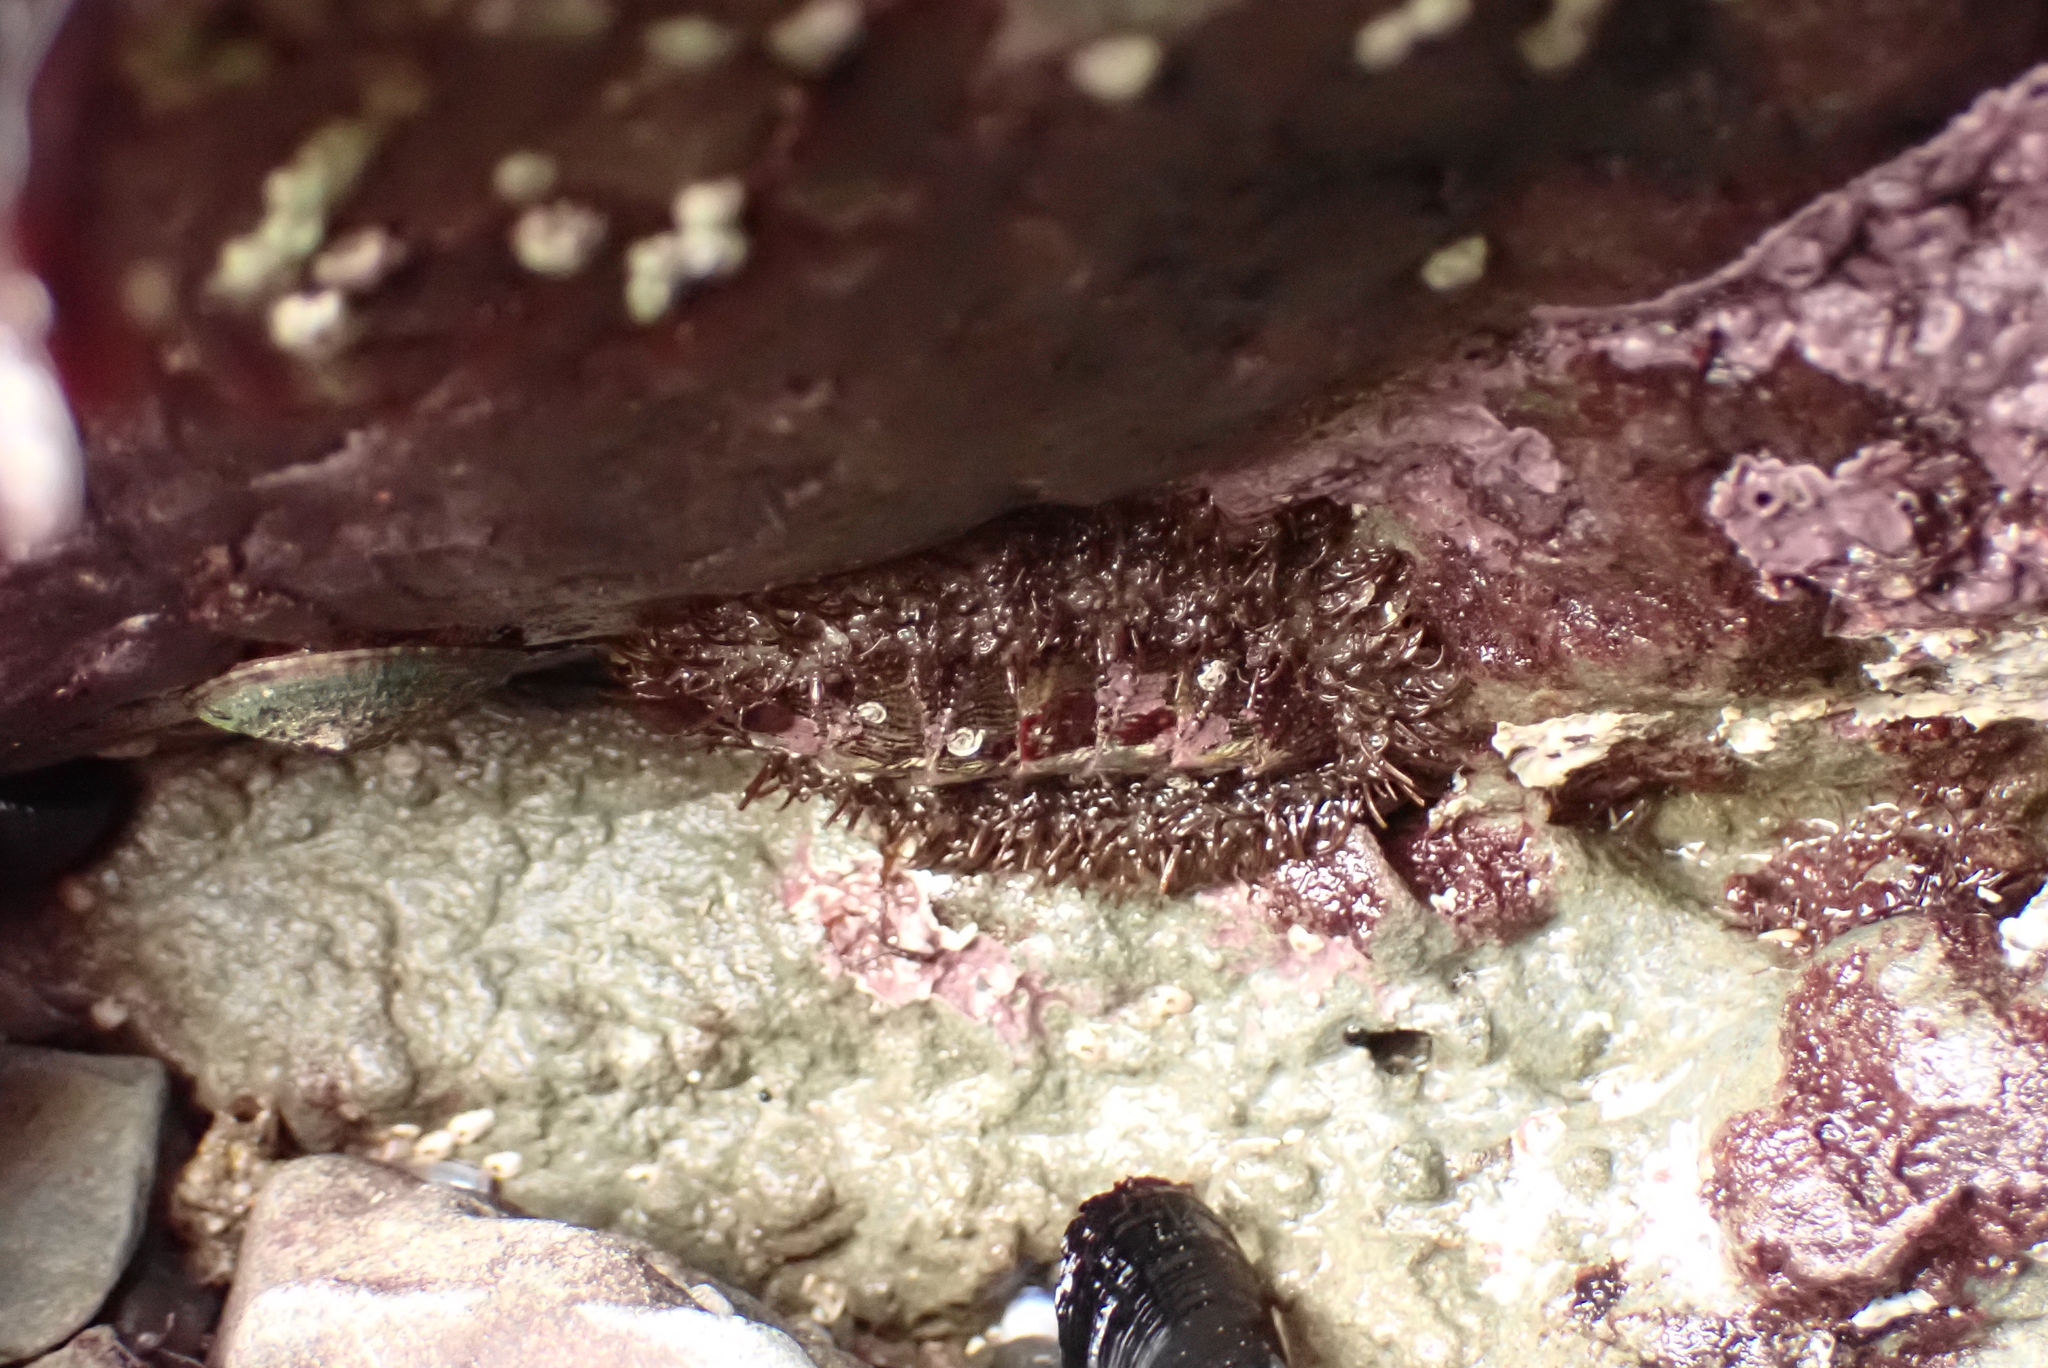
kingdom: Animalia
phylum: Mollusca
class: Polyplacophora
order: Chitonida
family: Mopaliidae
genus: Mopalia
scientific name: Mopalia muscosa
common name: Mossy chiton
